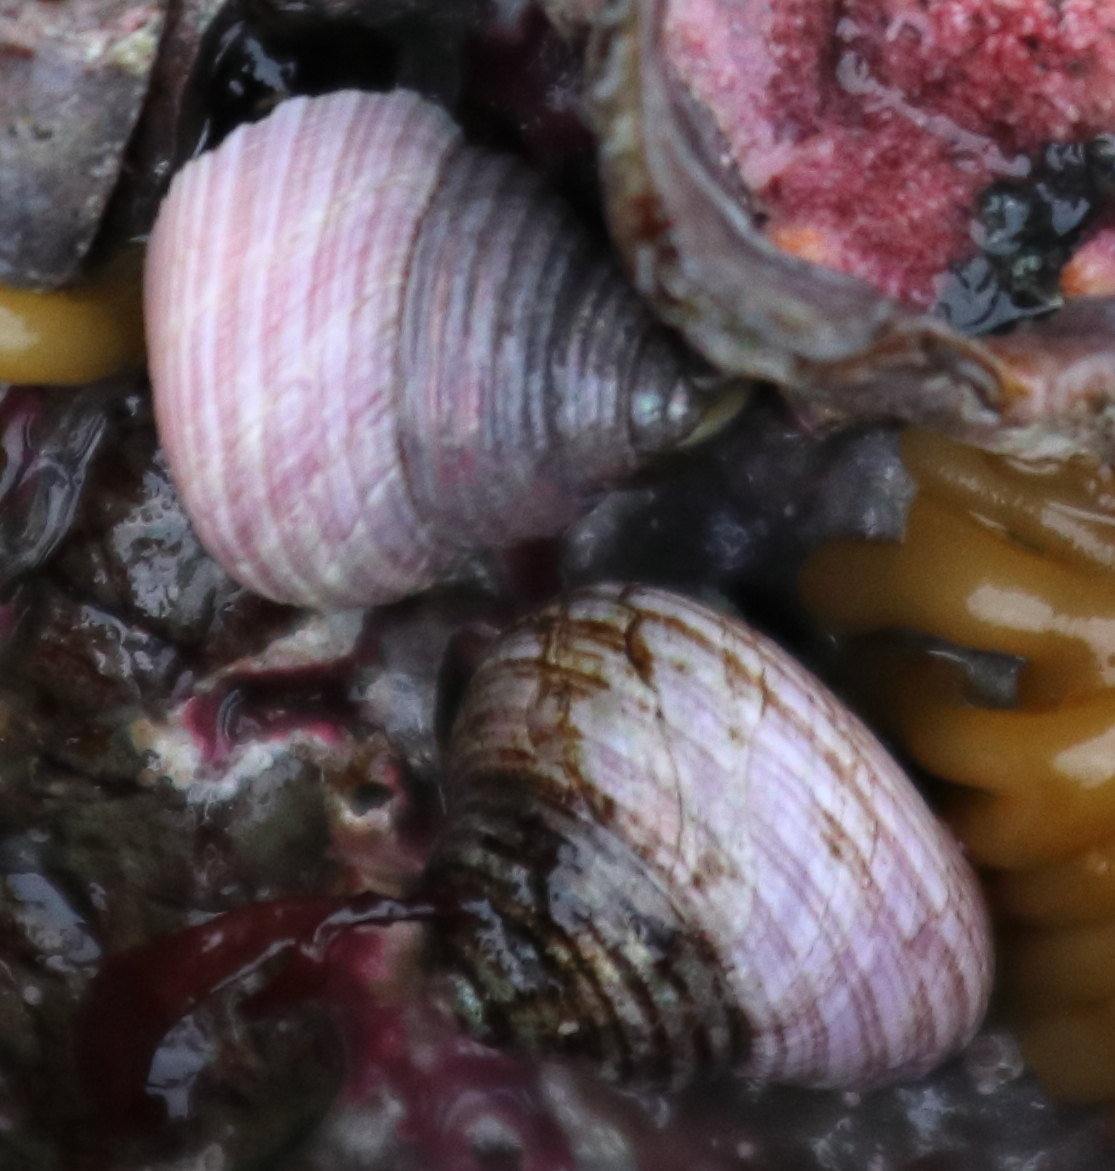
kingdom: Animalia
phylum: Mollusca
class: Gastropoda
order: Trochida
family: Margaritidae
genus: Margarites
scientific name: Margarites pupillus
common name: Puppet margarite
